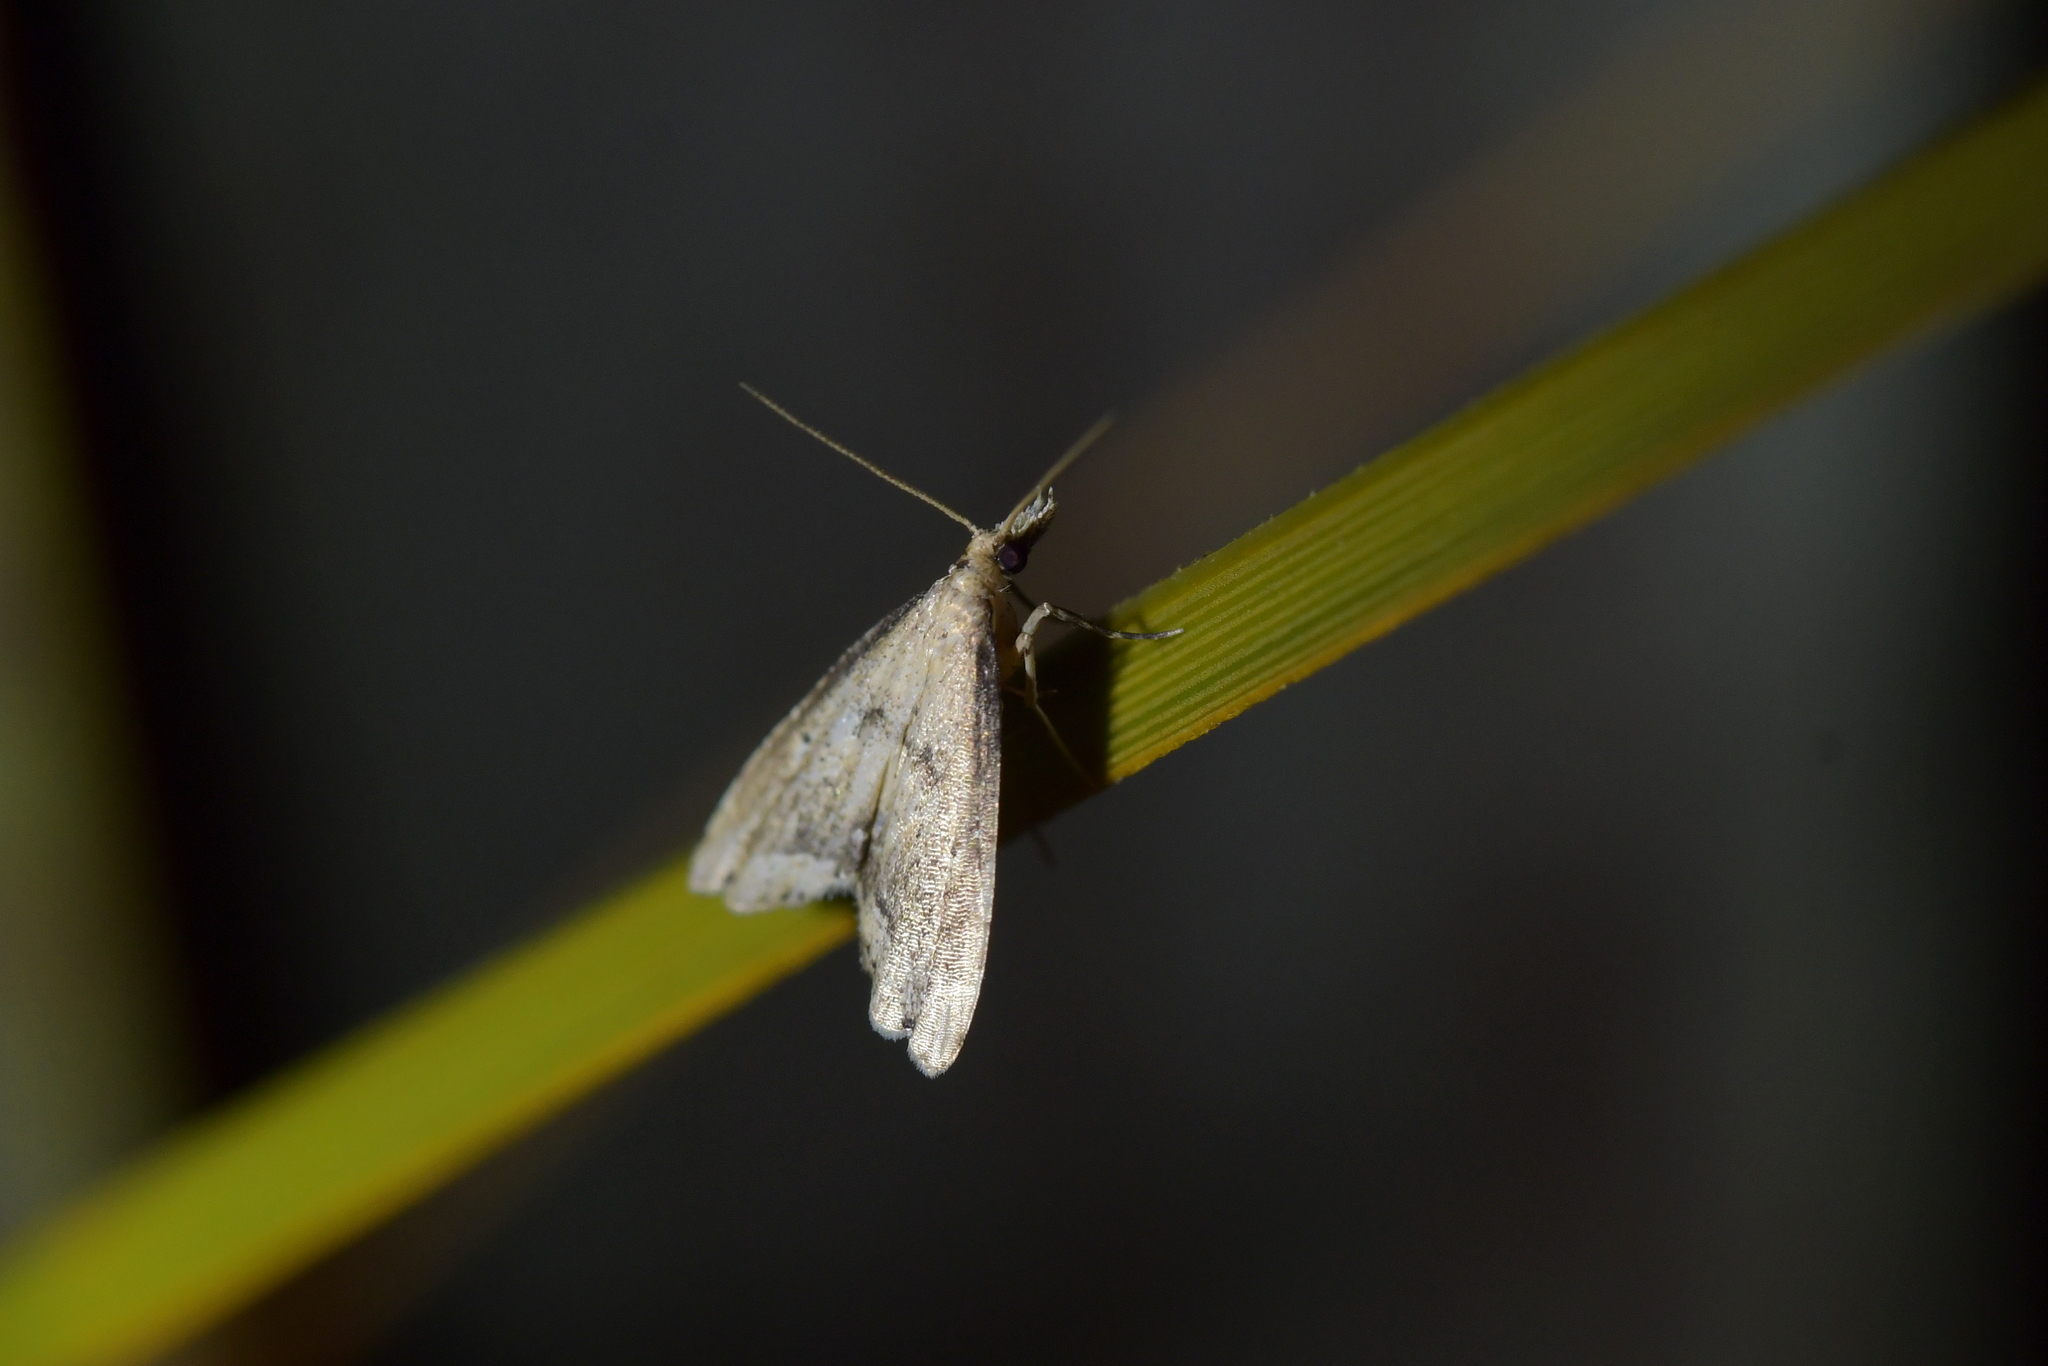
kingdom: Animalia
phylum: Arthropoda
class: Insecta
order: Lepidoptera
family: Crambidae
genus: Diplopseustis
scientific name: Diplopseustis perieresalis
